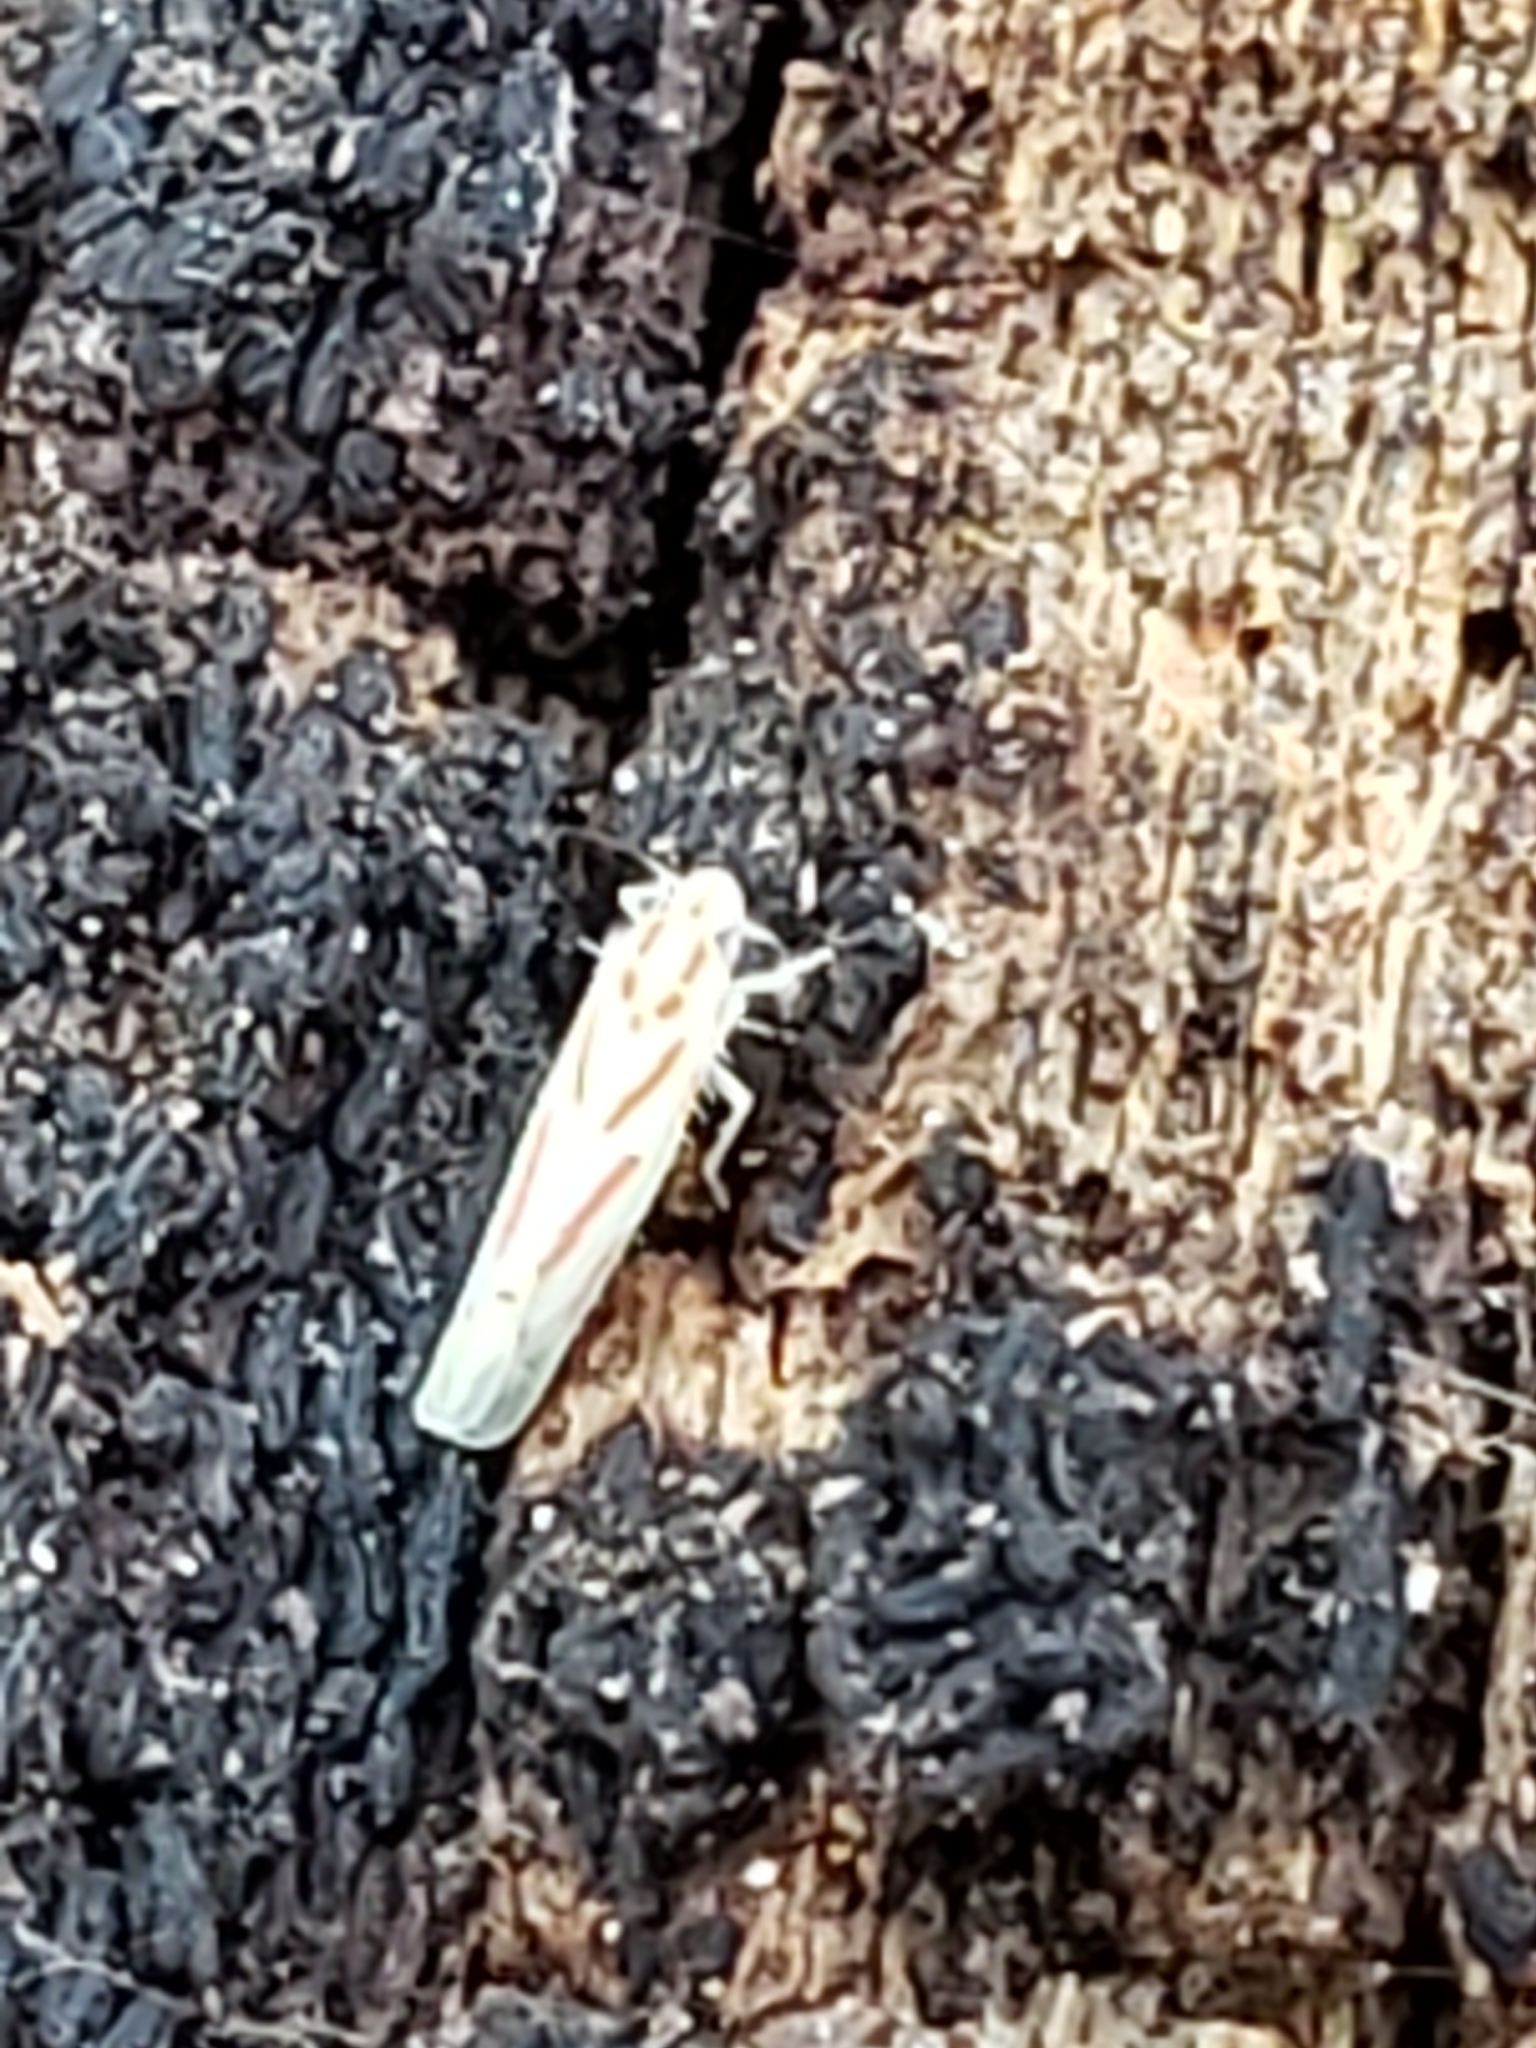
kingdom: Animalia
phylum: Arthropoda
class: Insecta
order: Hemiptera
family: Cicadellidae
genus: Dikrella
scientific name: Dikrella cruentata
